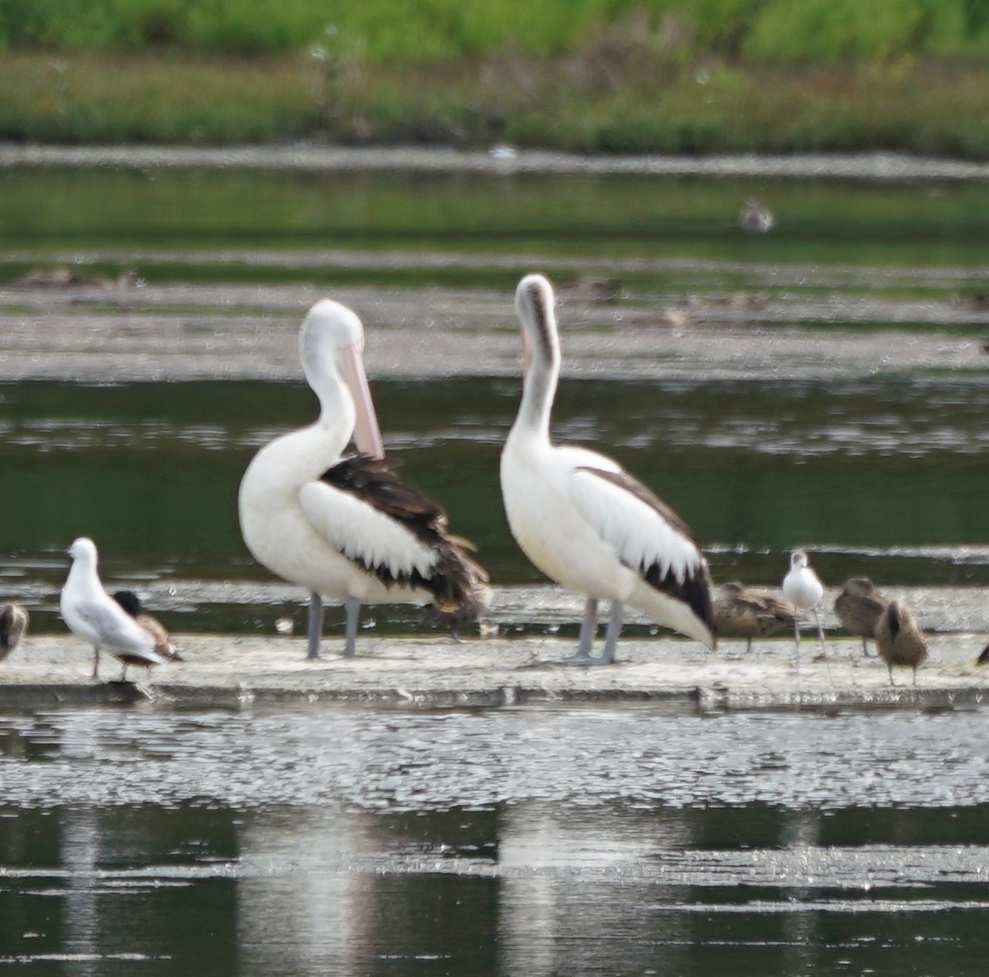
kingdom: Animalia
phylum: Chordata
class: Aves
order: Pelecaniformes
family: Pelecanidae
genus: Pelecanus
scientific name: Pelecanus conspicillatus
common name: Australian pelican
